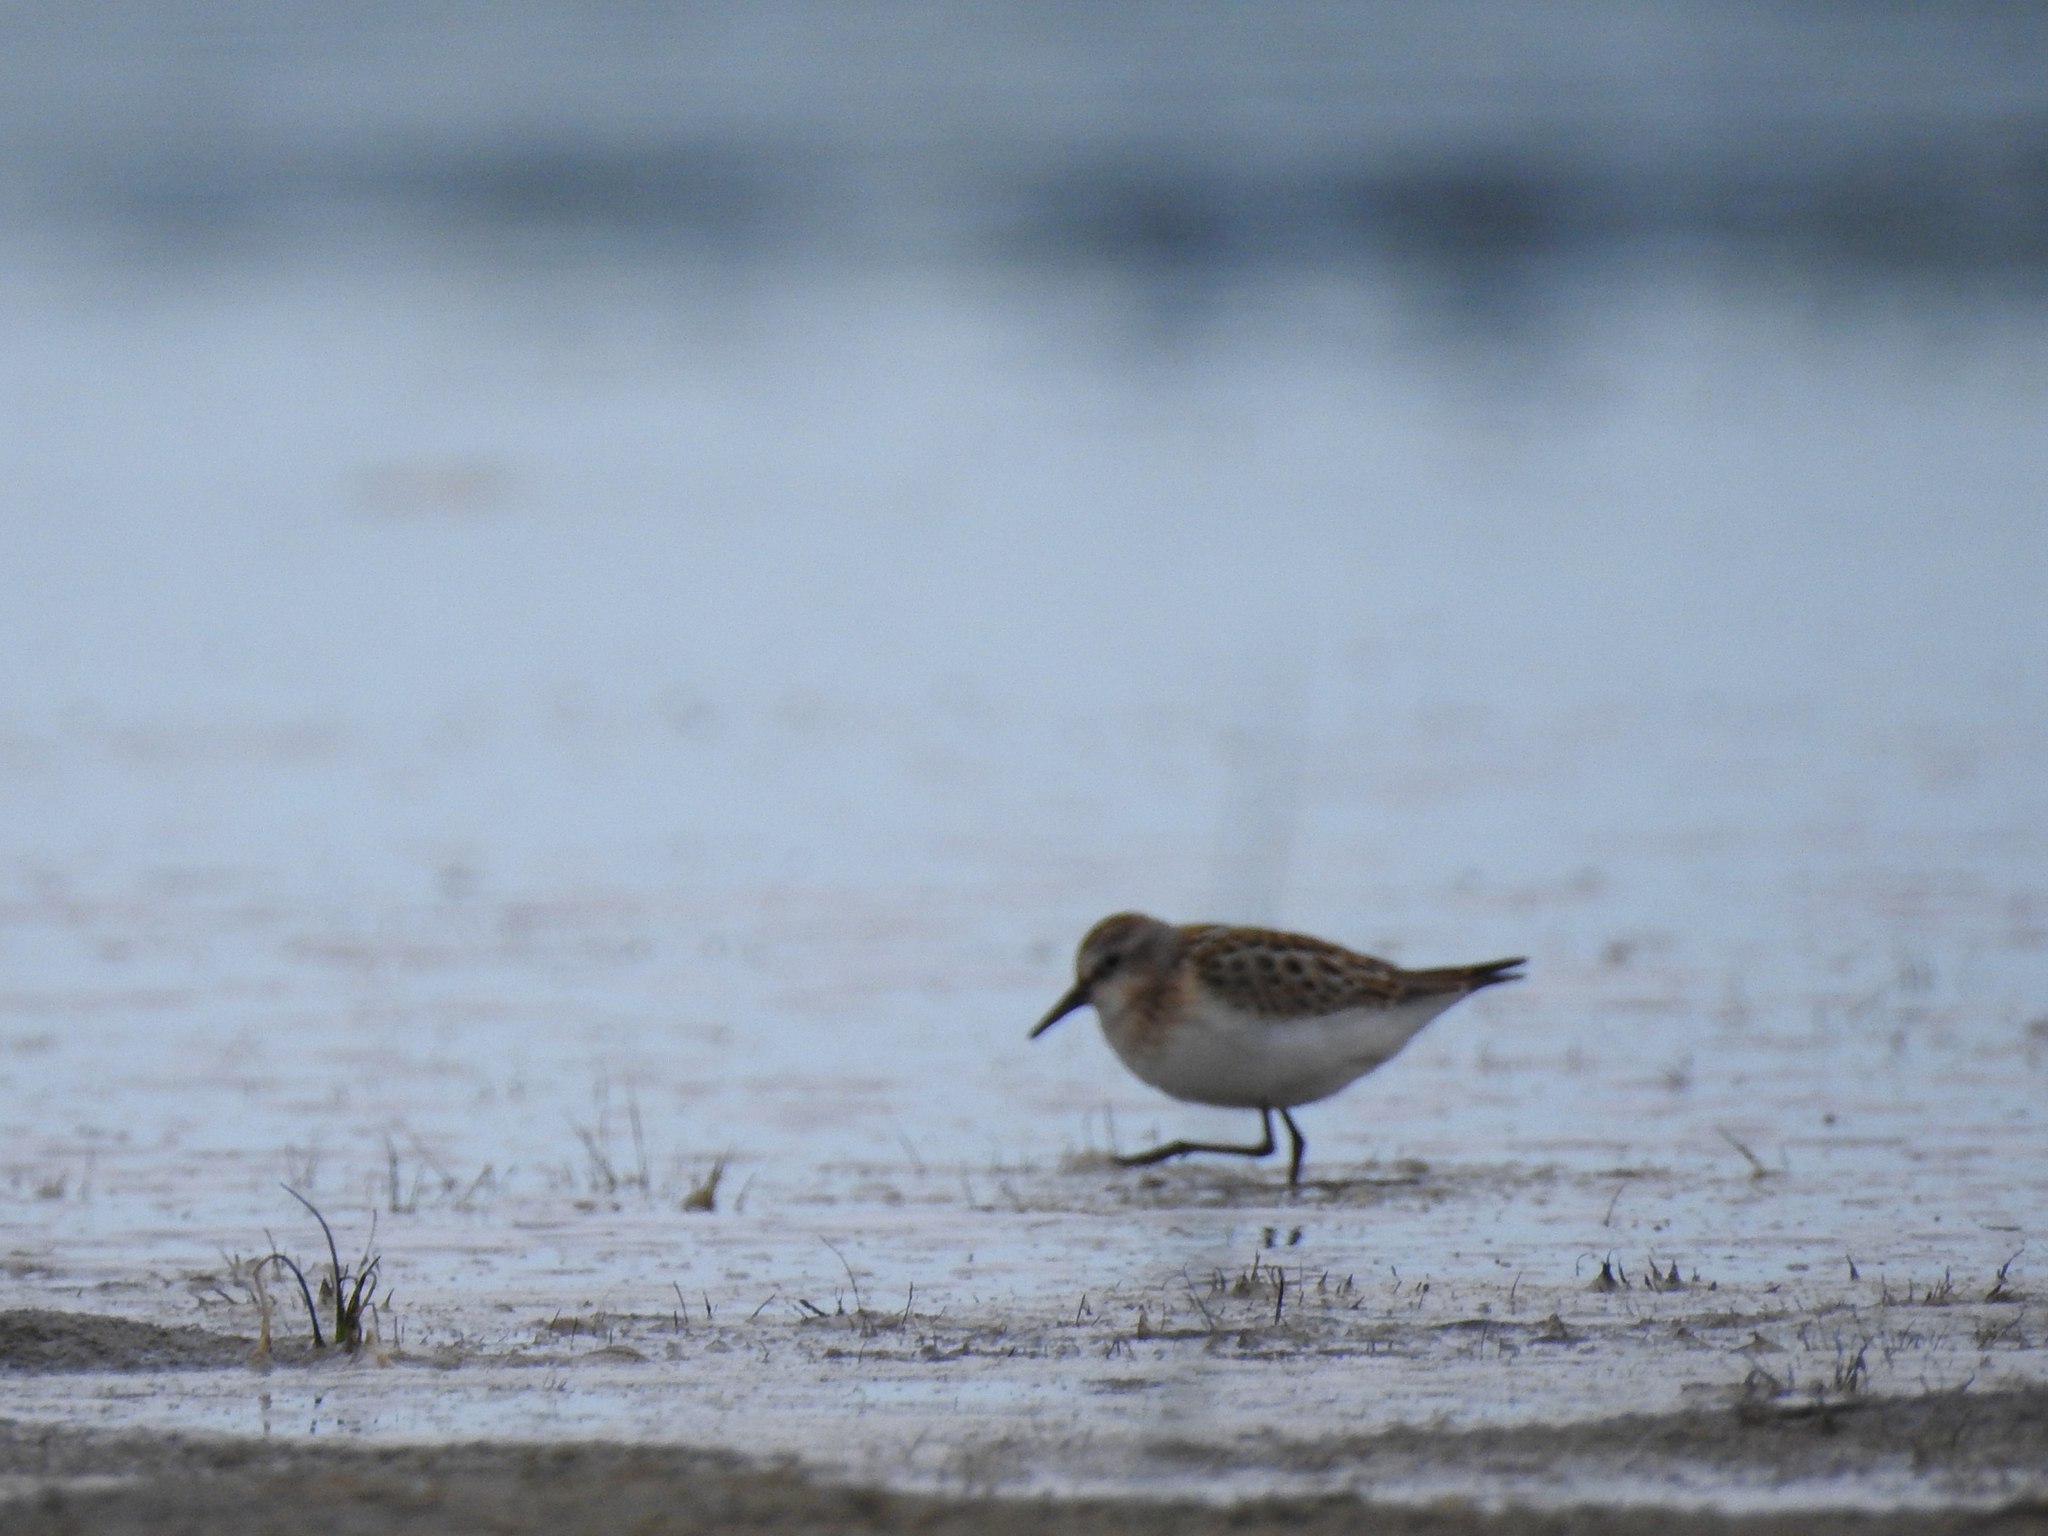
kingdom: Animalia
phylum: Chordata
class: Aves
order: Charadriiformes
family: Scolopacidae
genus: Calidris
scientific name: Calidris minuta
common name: Little stint
